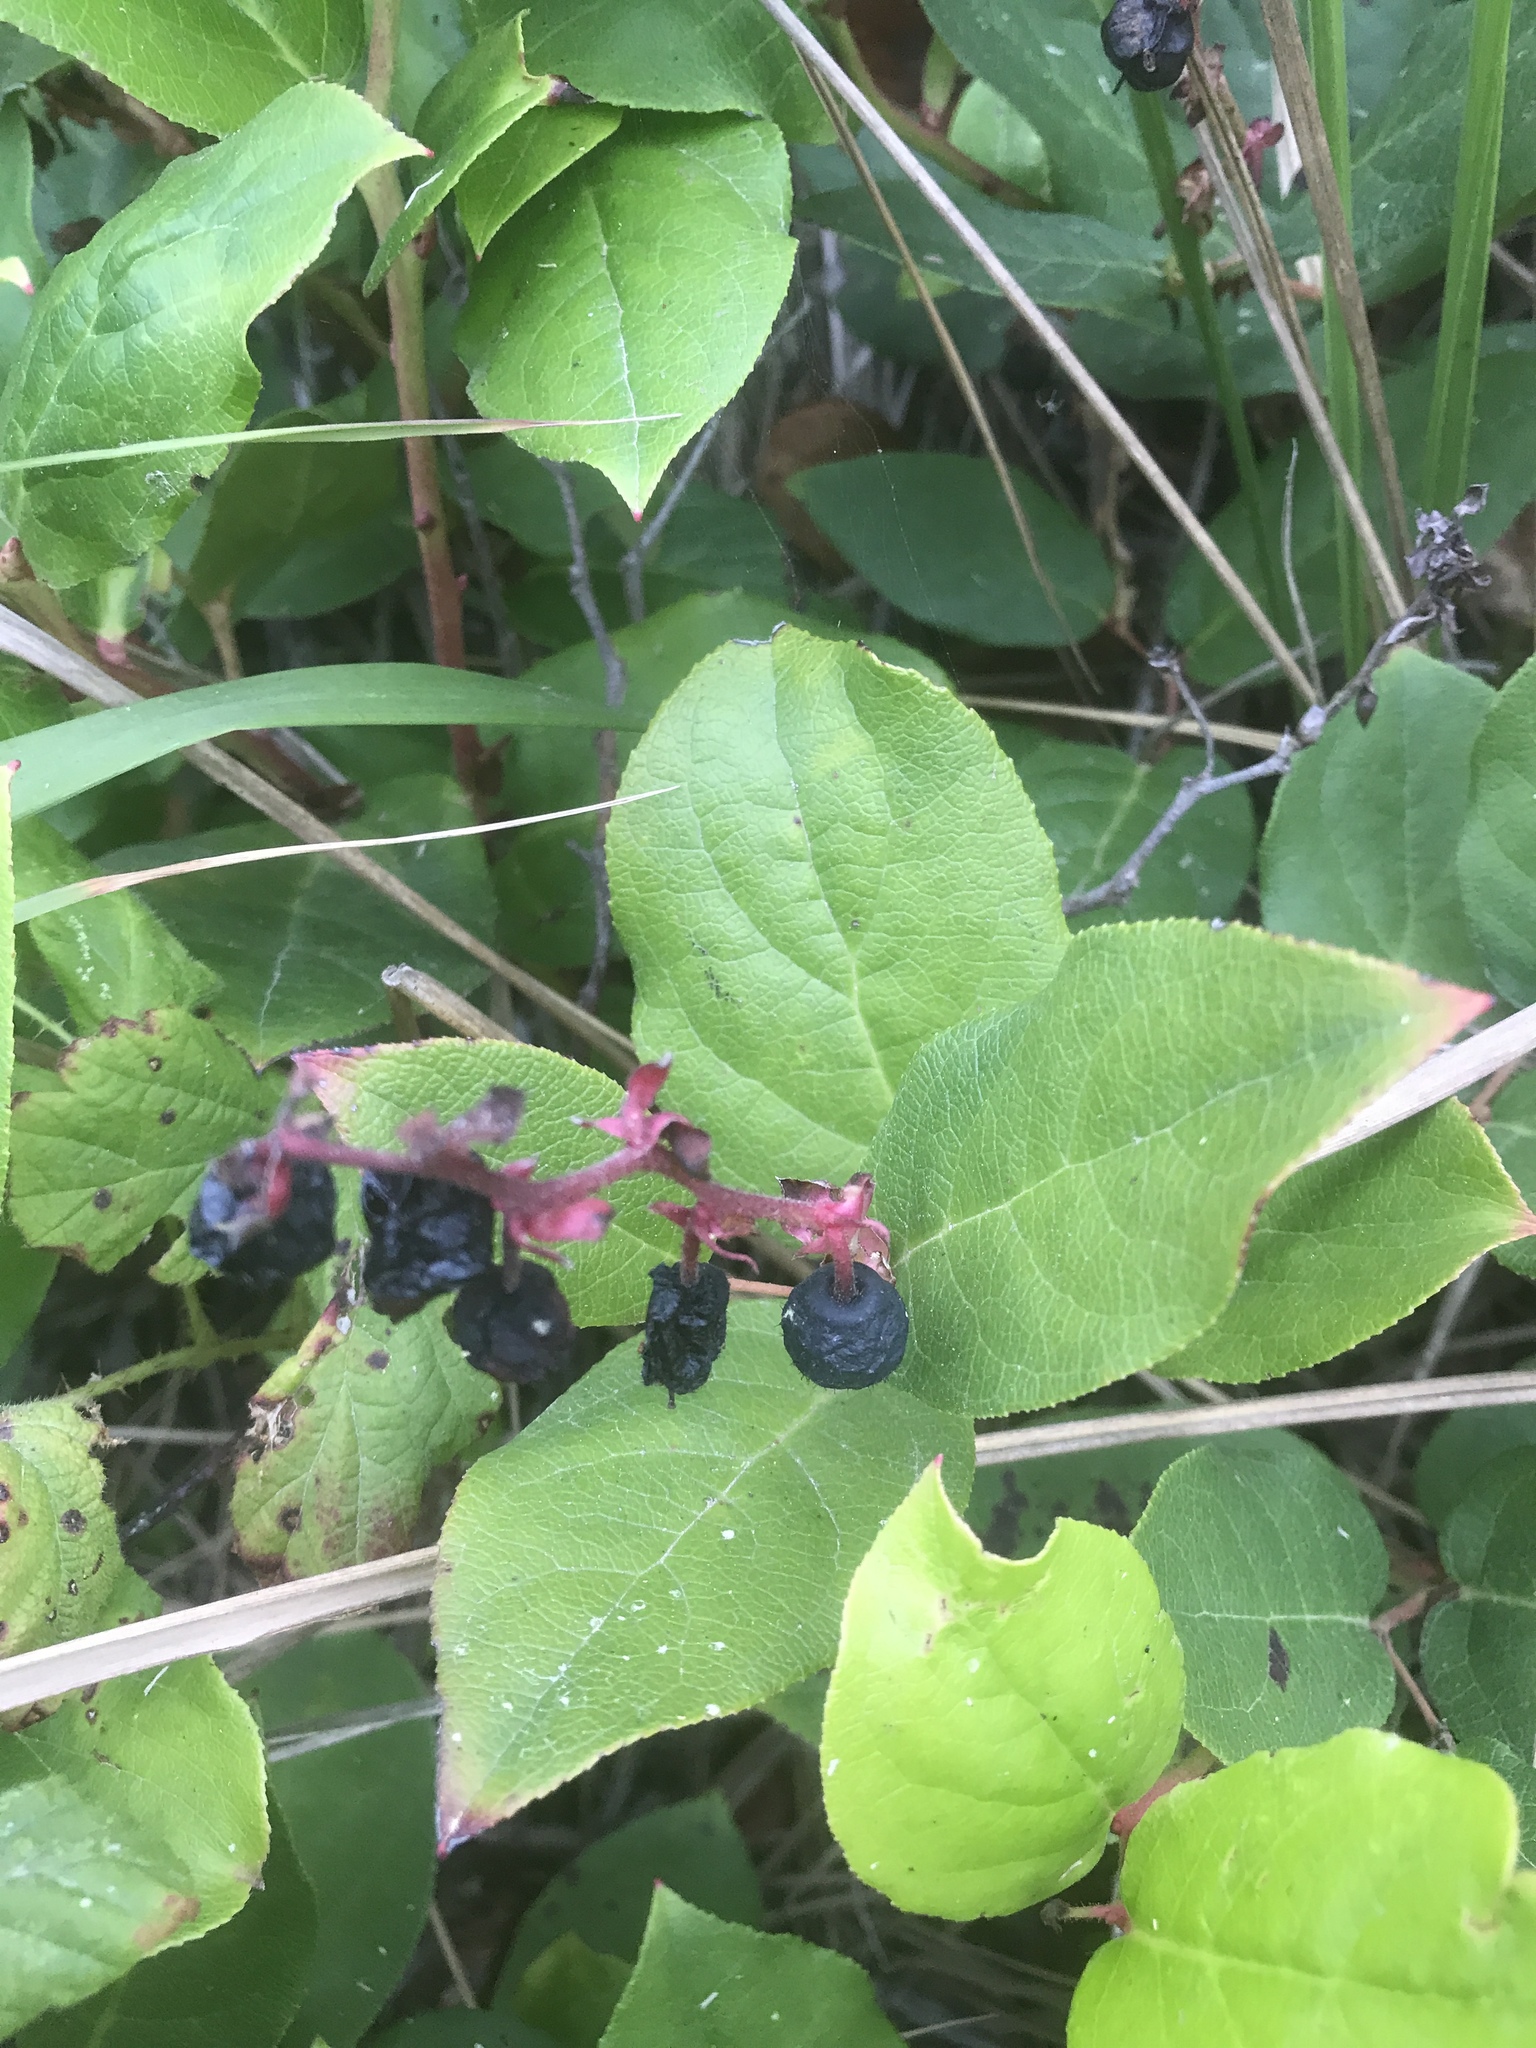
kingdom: Plantae
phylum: Tracheophyta
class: Magnoliopsida
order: Ericales
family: Ericaceae
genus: Gaultheria
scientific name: Gaultheria shallon
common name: Shallon
